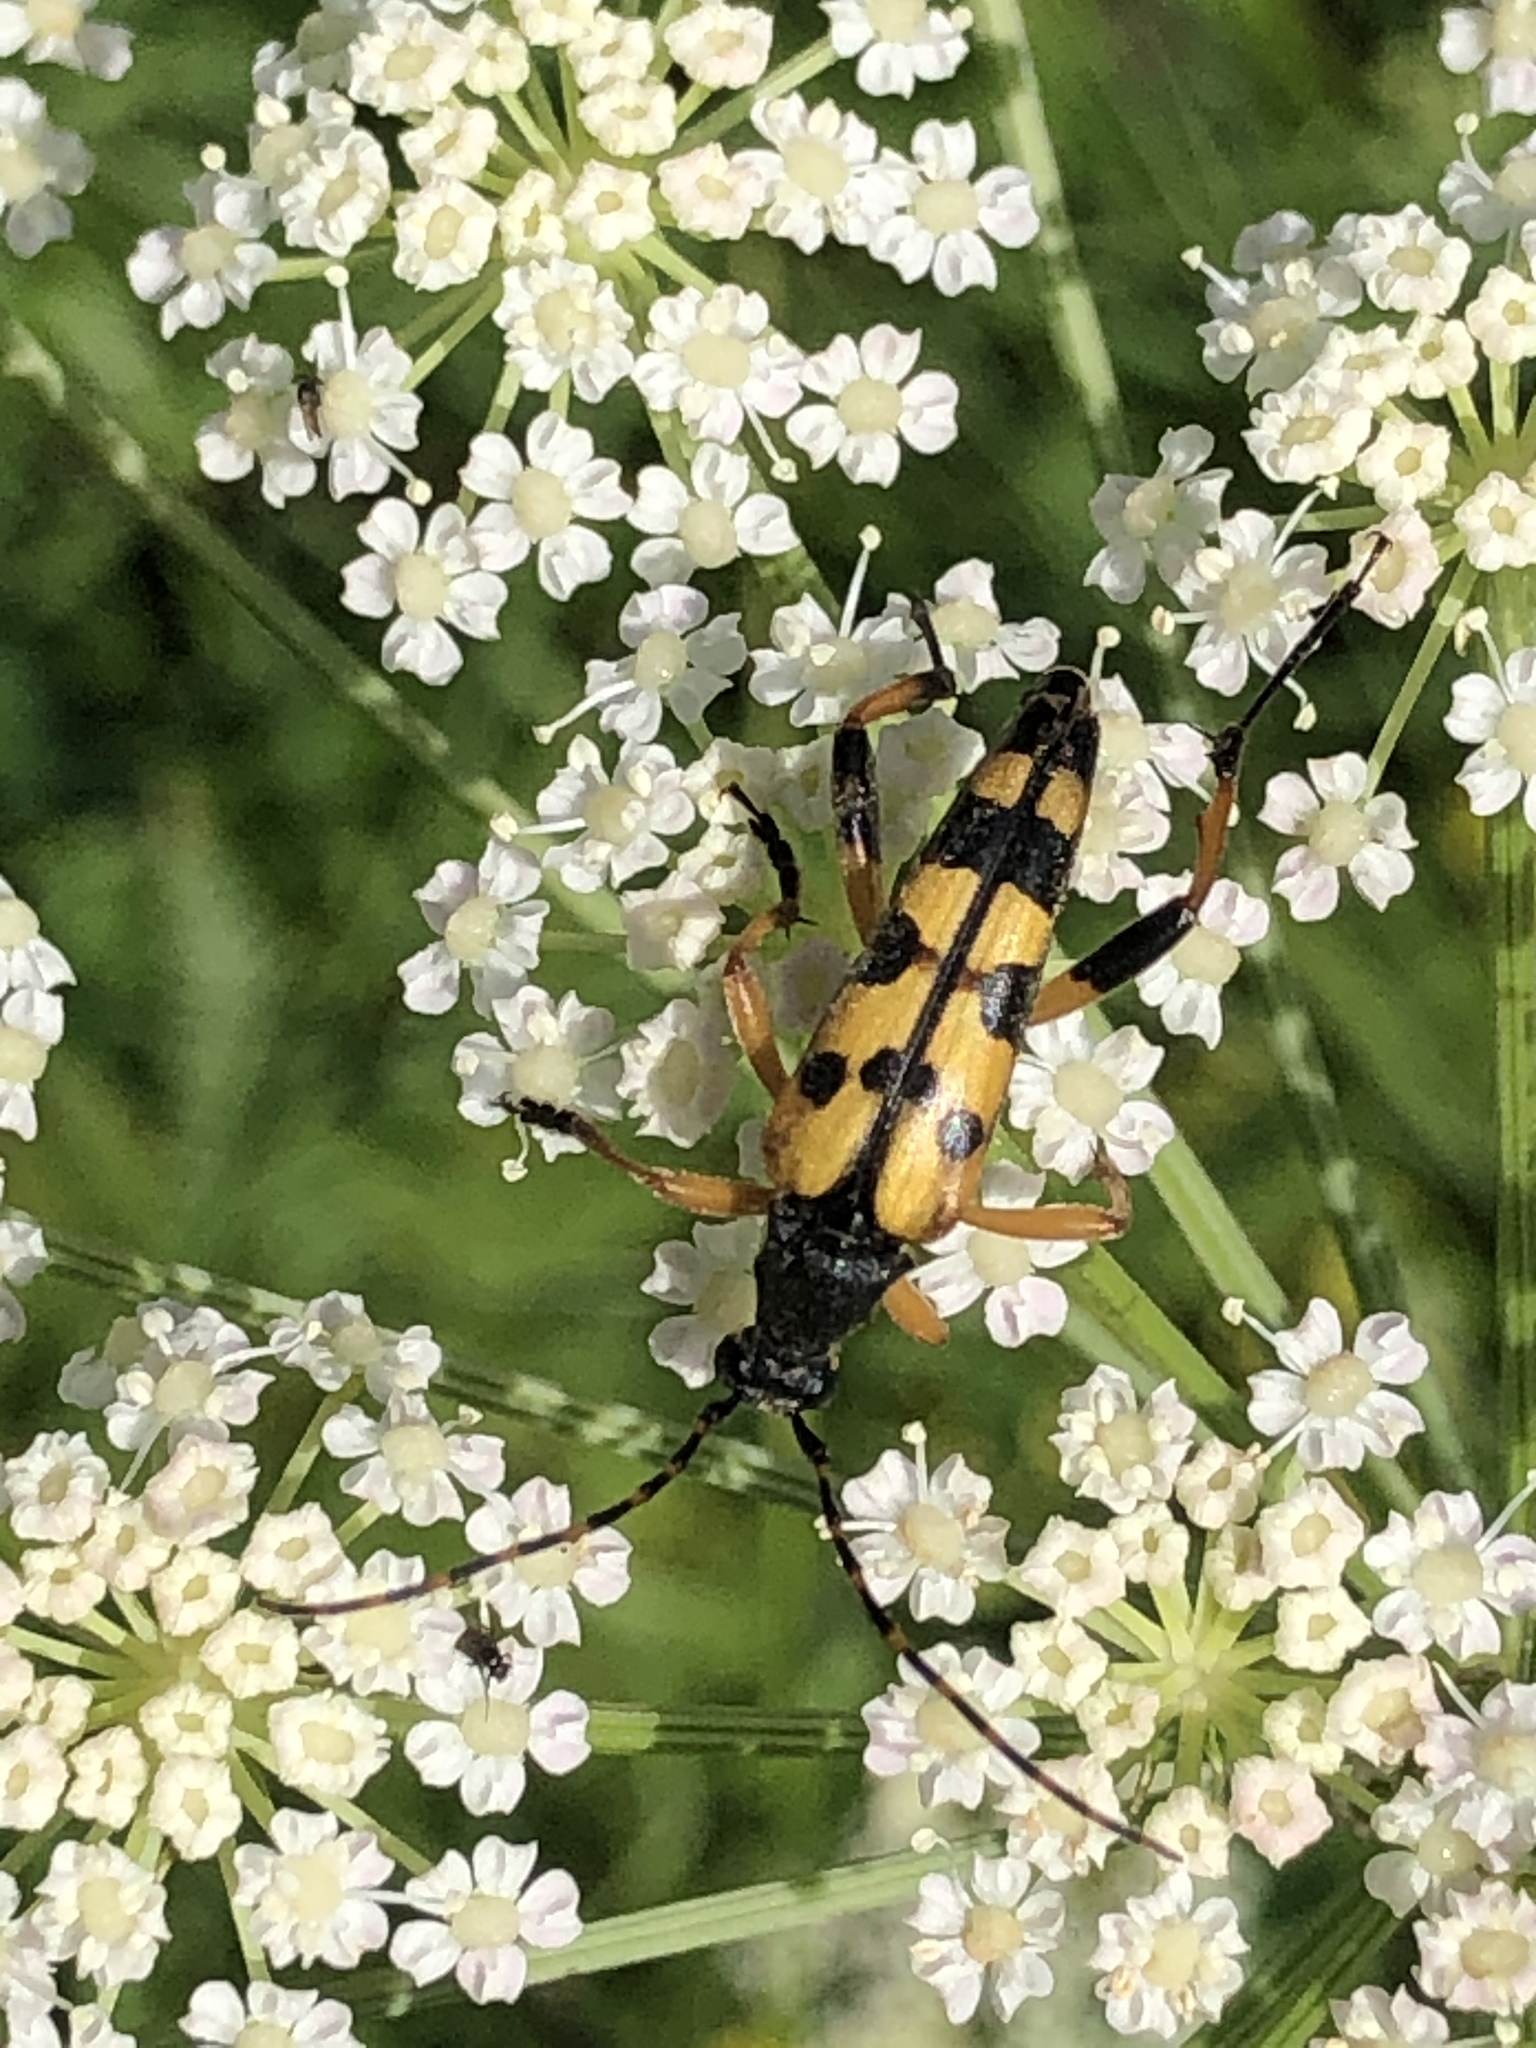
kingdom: Animalia
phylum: Arthropoda
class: Insecta
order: Coleoptera
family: Cerambycidae
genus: Rutpela
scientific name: Rutpela maculata
